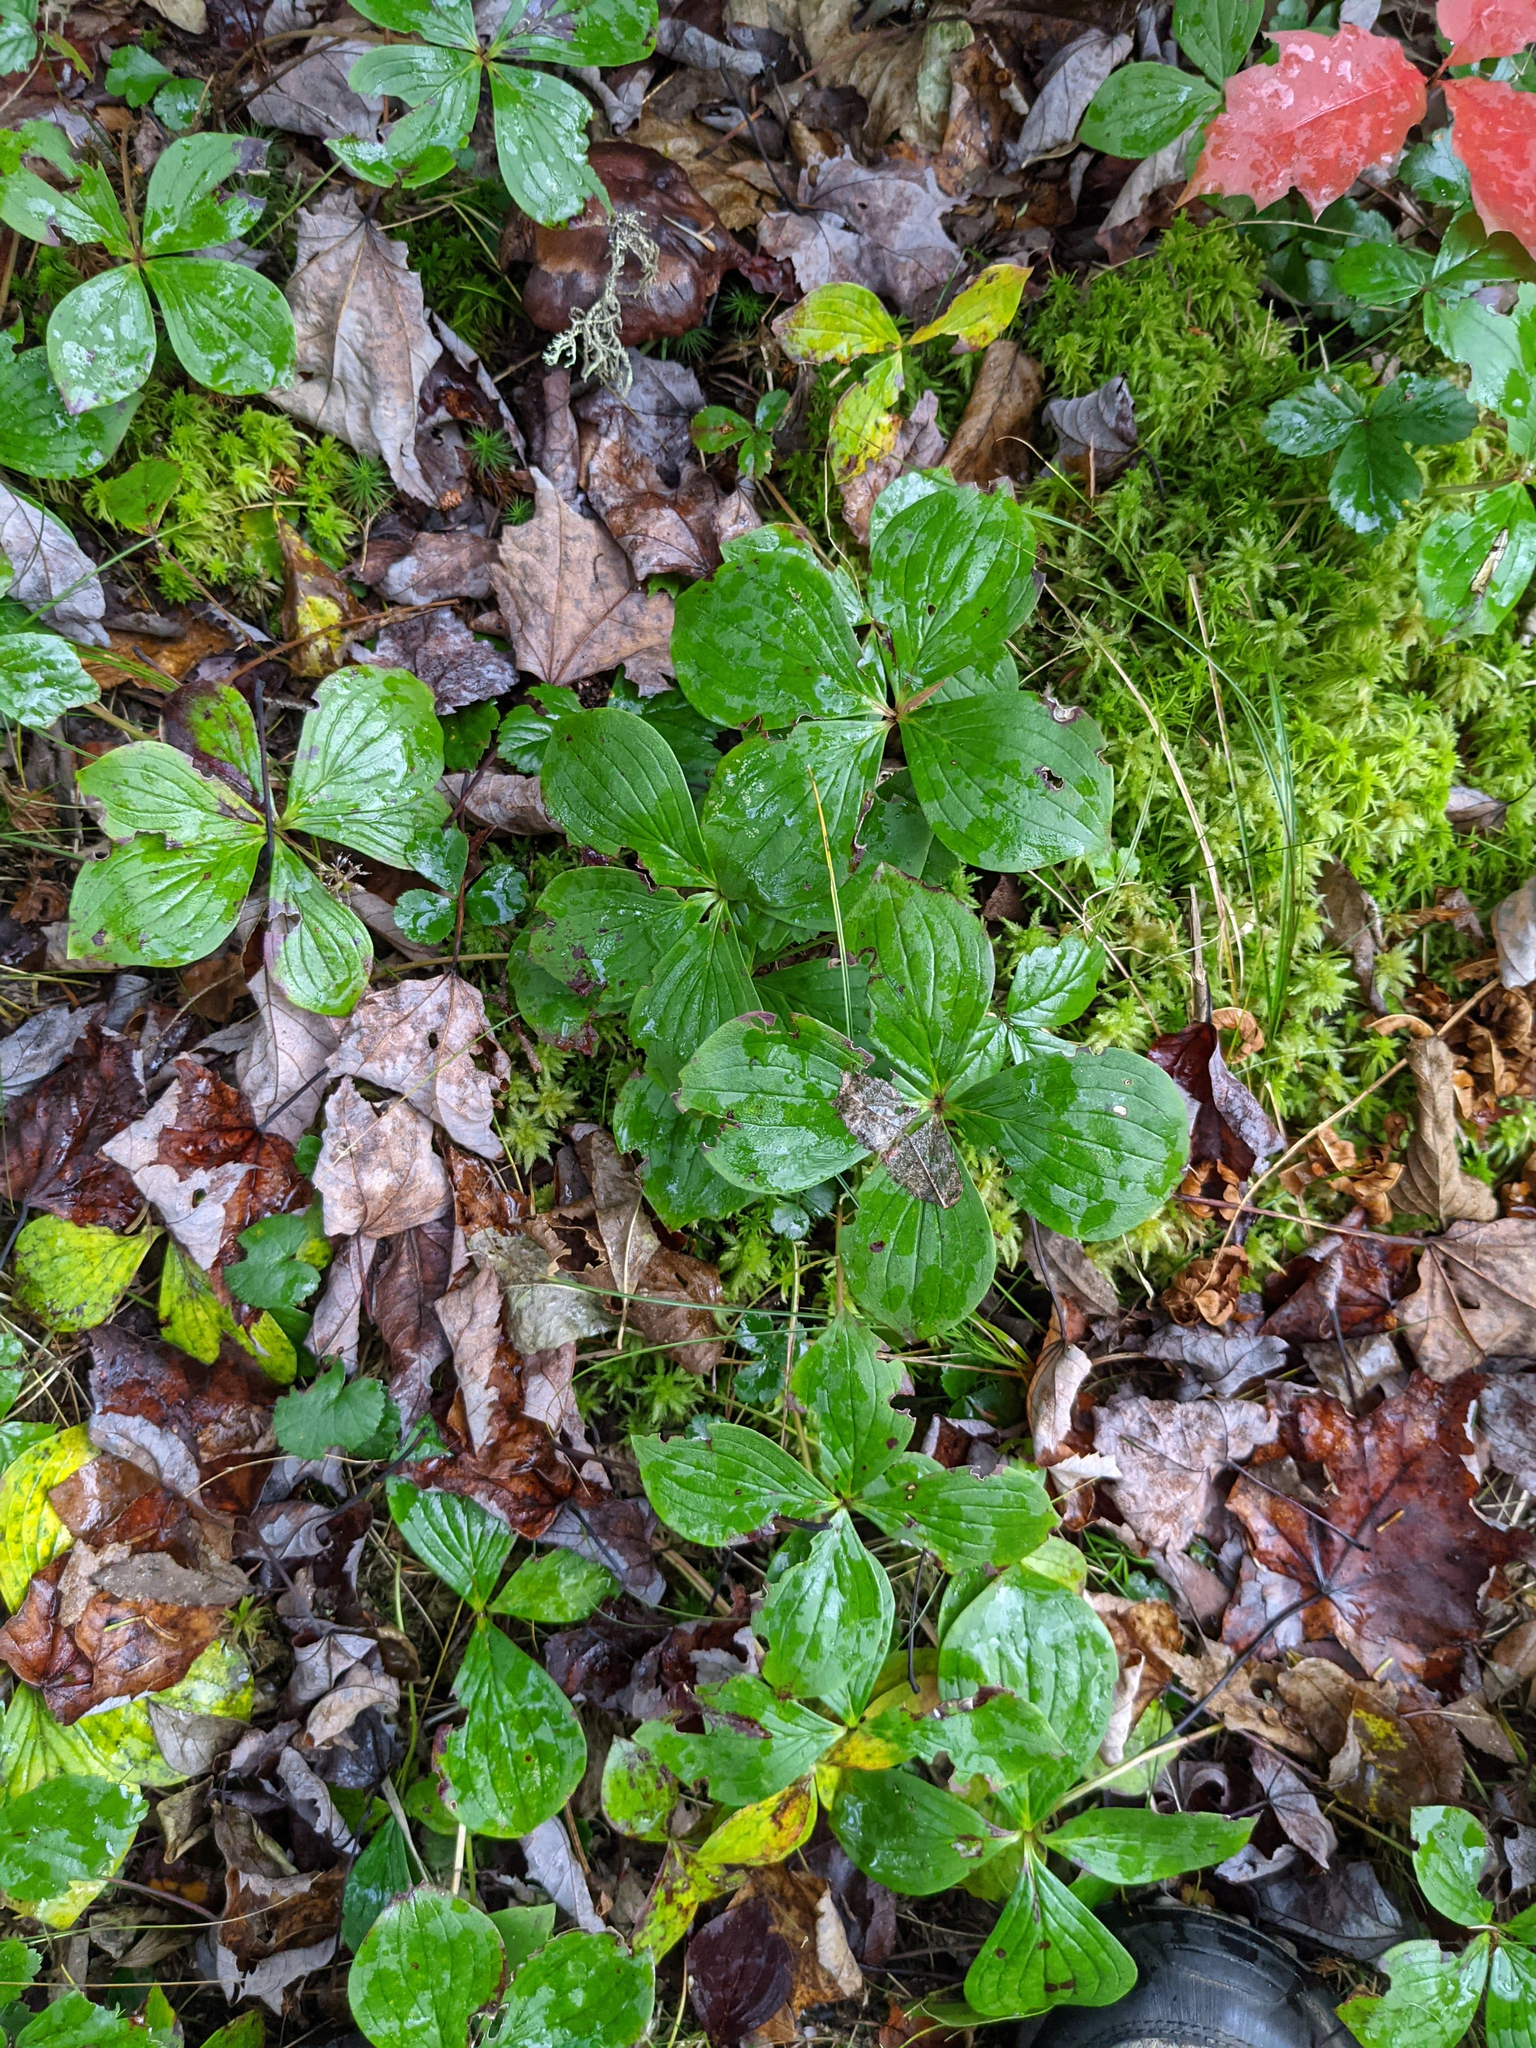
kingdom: Plantae
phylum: Tracheophyta
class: Magnoliopsida
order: Cornales
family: Cornaceae
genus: Cornus
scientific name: Cornus canadensis
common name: Creeping dogwood
